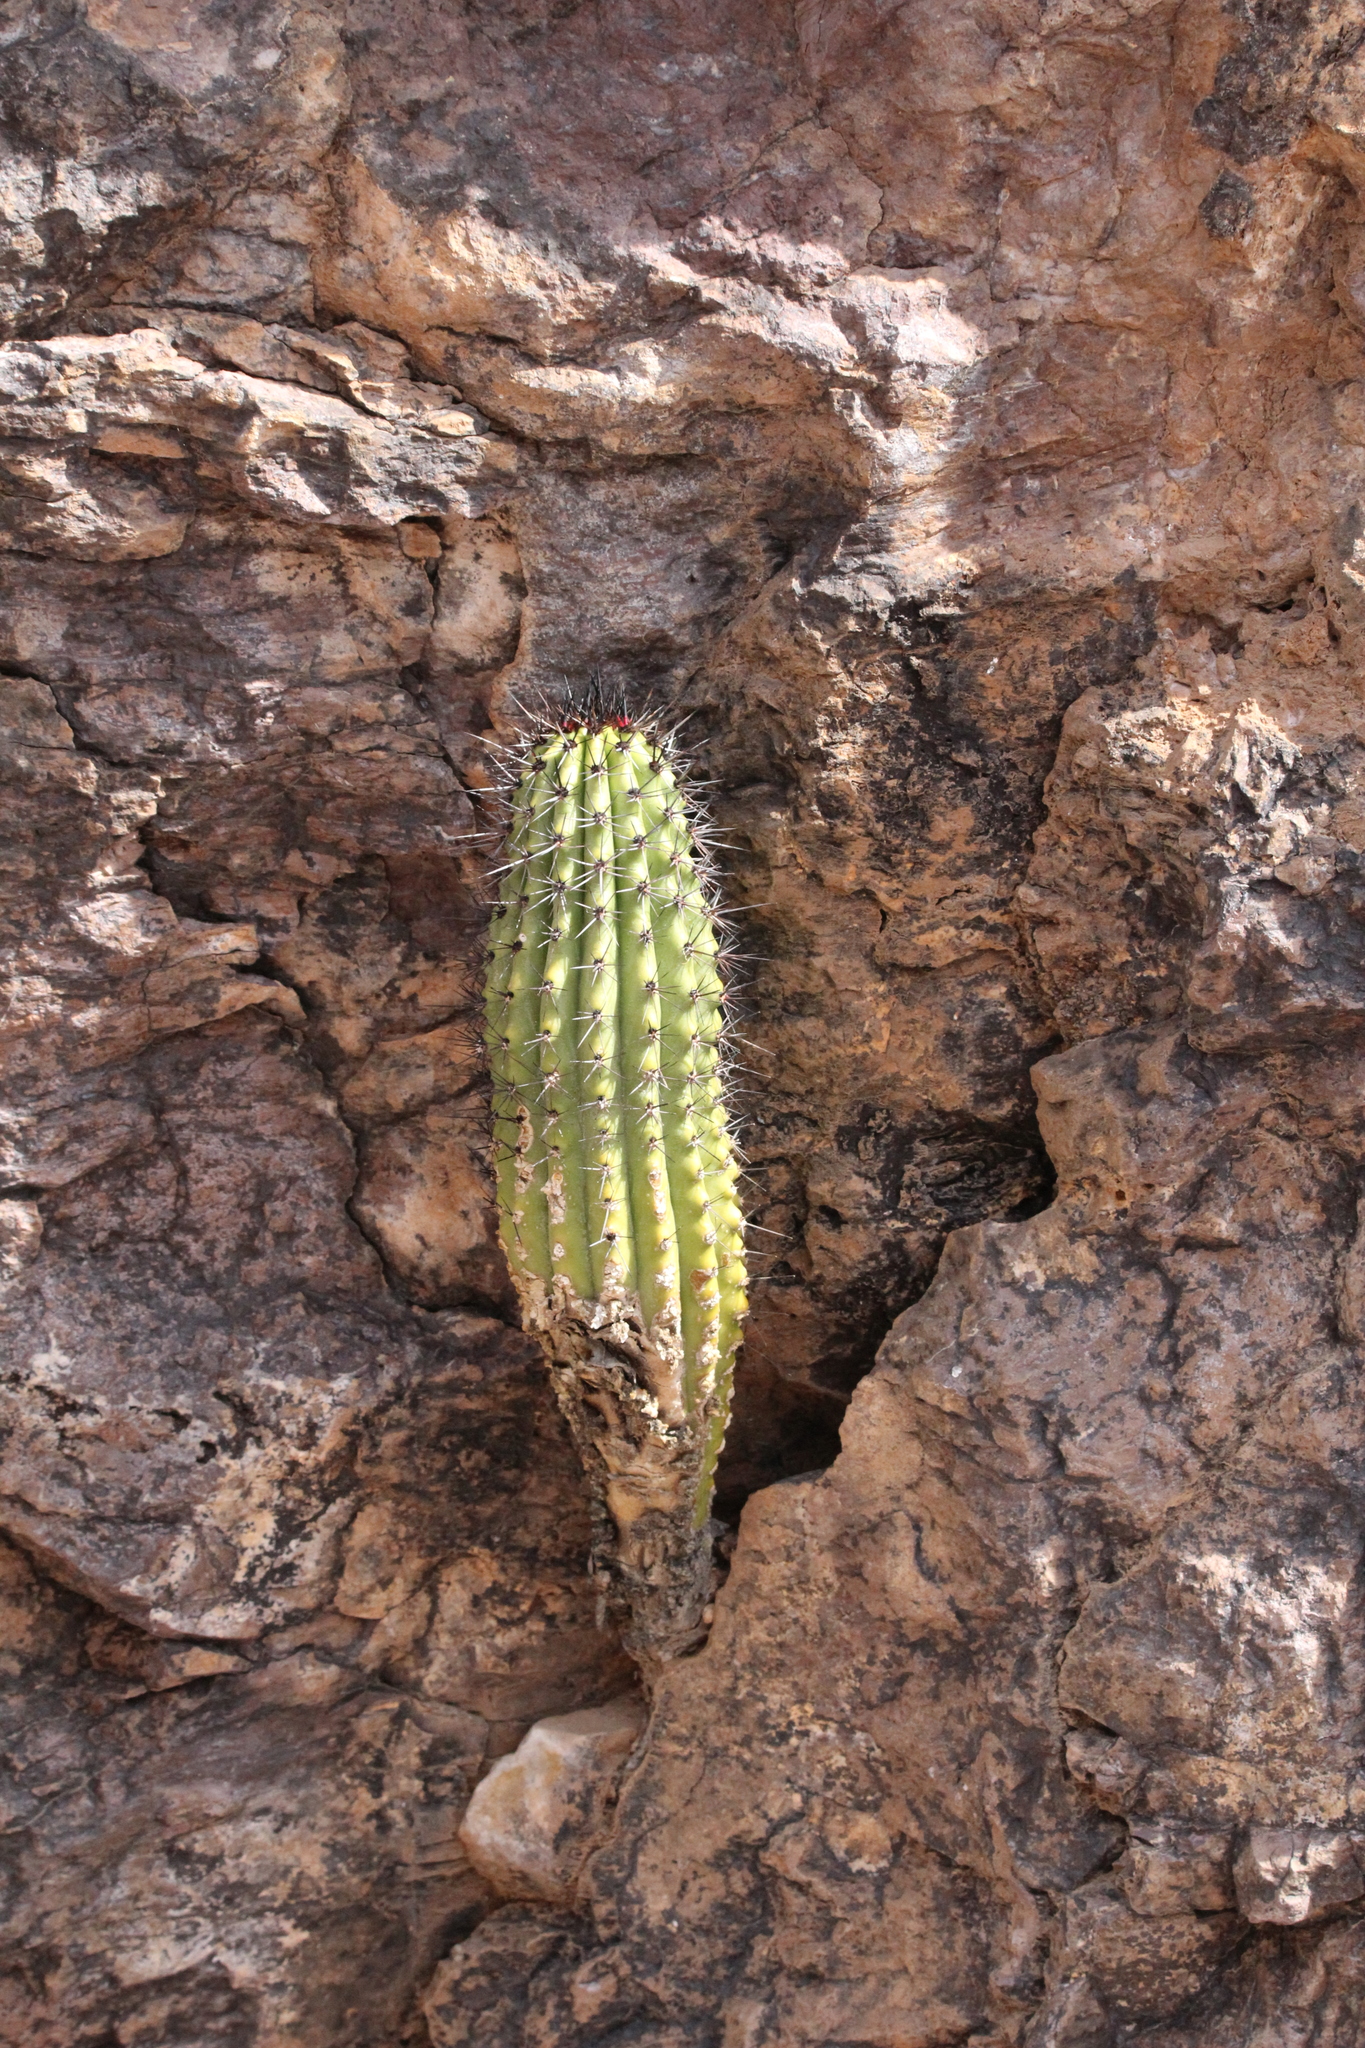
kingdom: Plantae
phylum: Tracheophyta
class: Magnoliopsida
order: Caryophyllales
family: Cactaceae
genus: Stenocereus
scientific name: Stenocereus thurberi
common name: Organ pipe cactus
